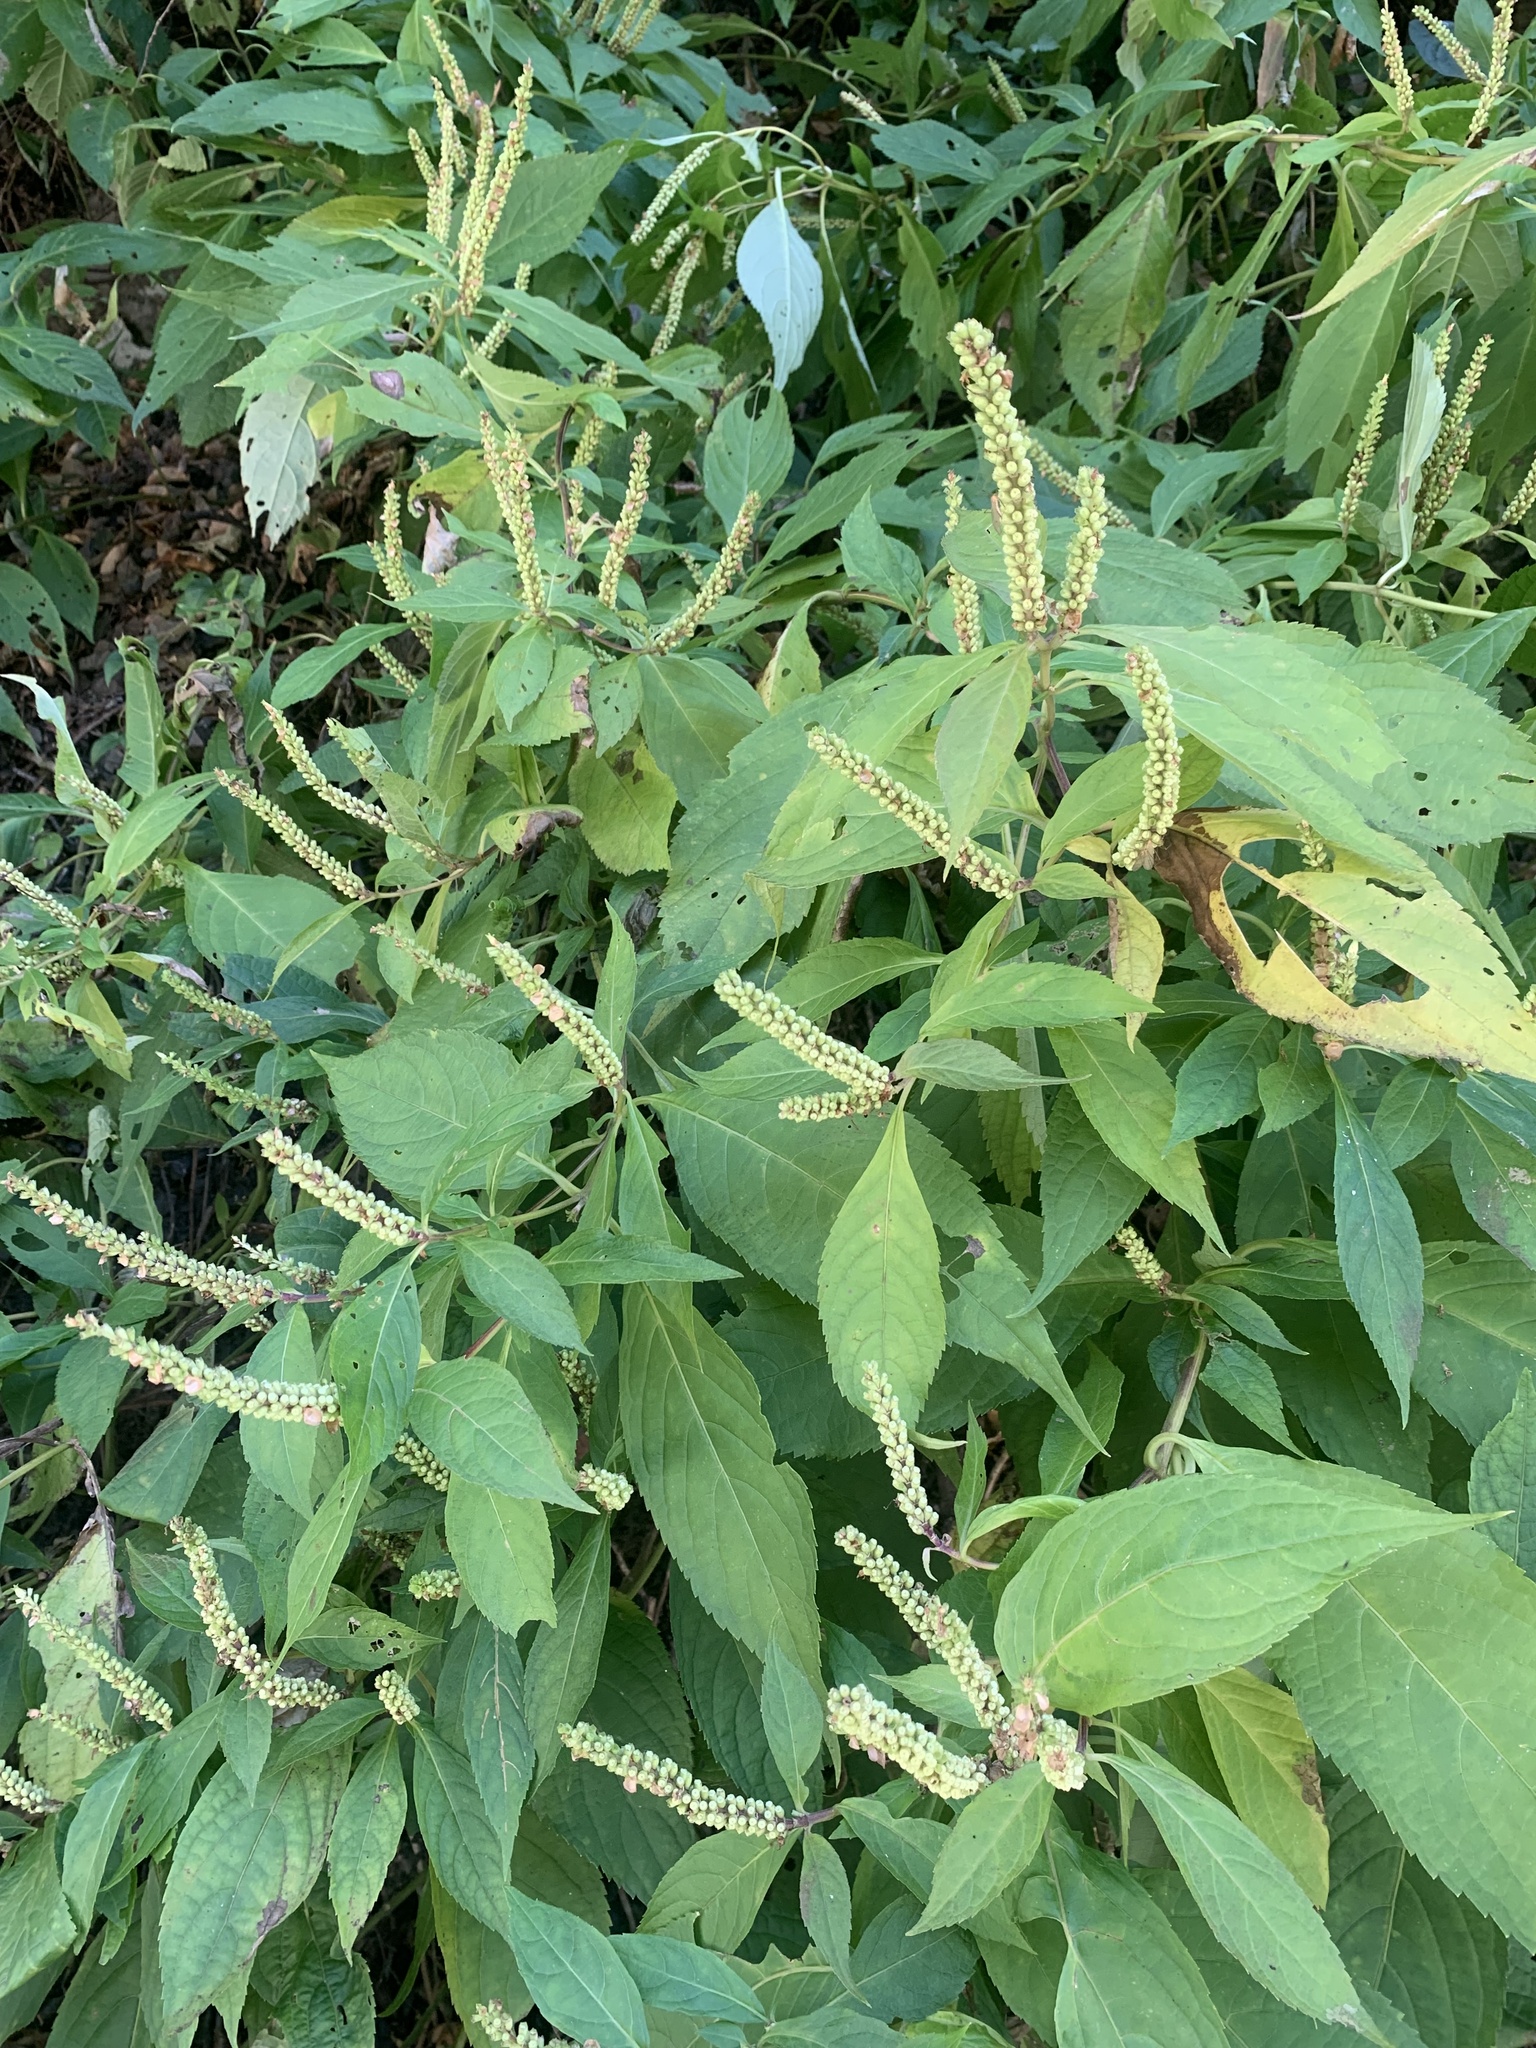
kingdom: Plantae
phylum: Tracheophyta
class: Magnoliopsida
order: Lamiales
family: Lamiaceae
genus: Comanthosphace
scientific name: Comanthosphace japonica
